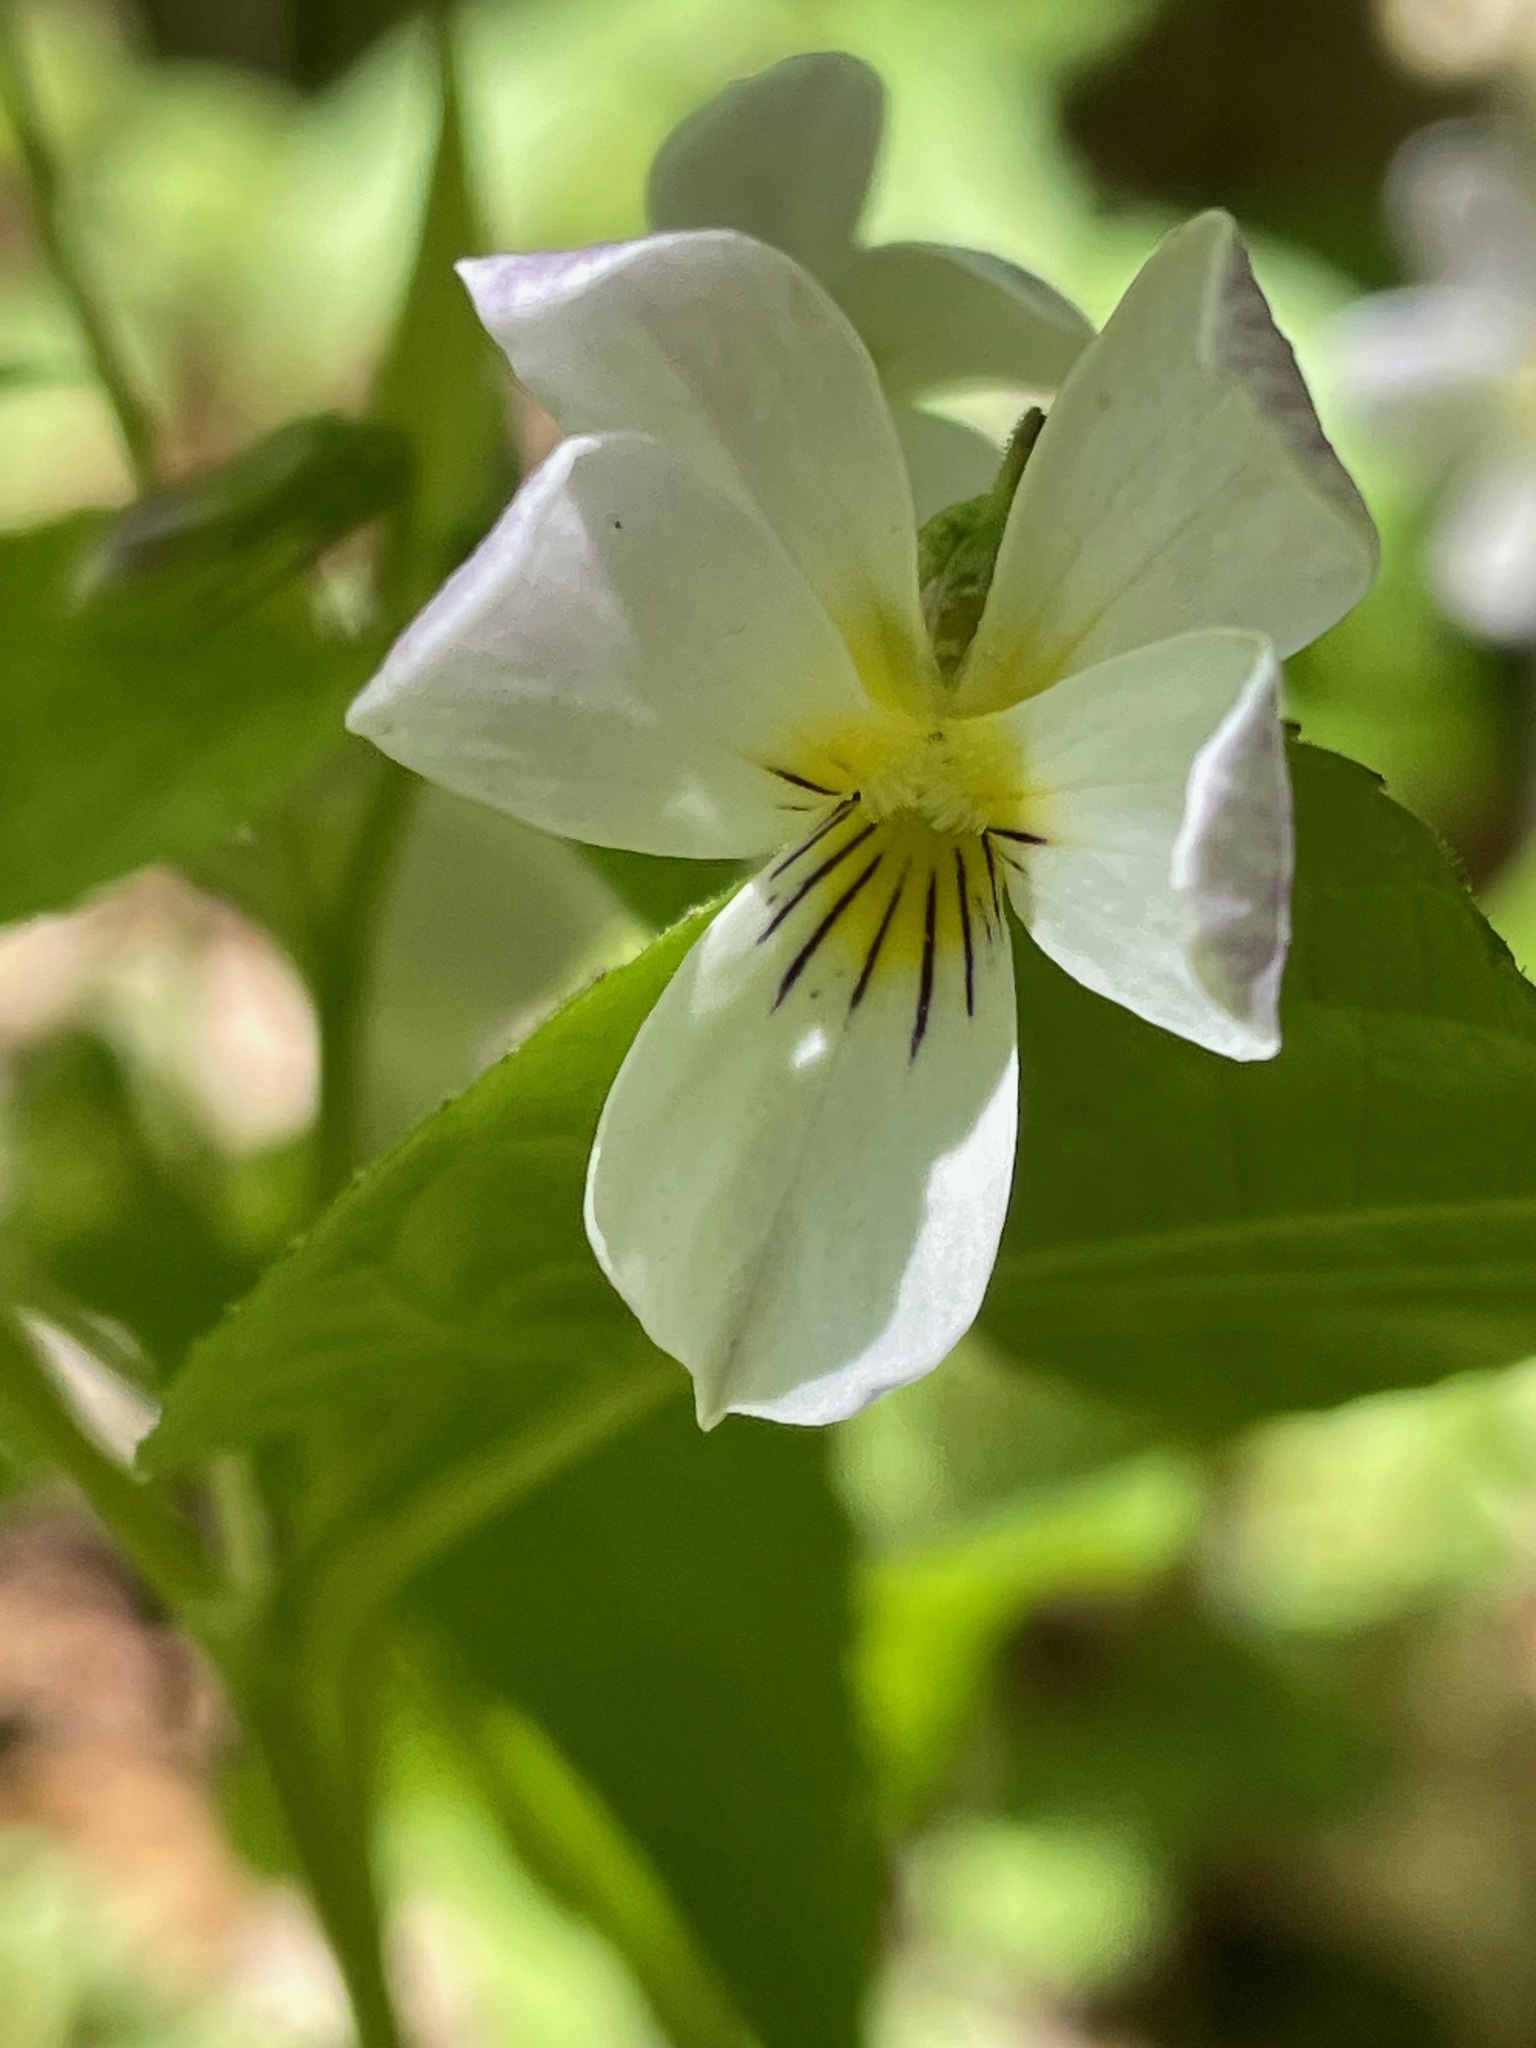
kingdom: Plantae
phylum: Tracheophyta
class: Magnoliopsida
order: Malpighiales
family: Violaceae
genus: Viola
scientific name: Viola canadensis
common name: Canada violet
